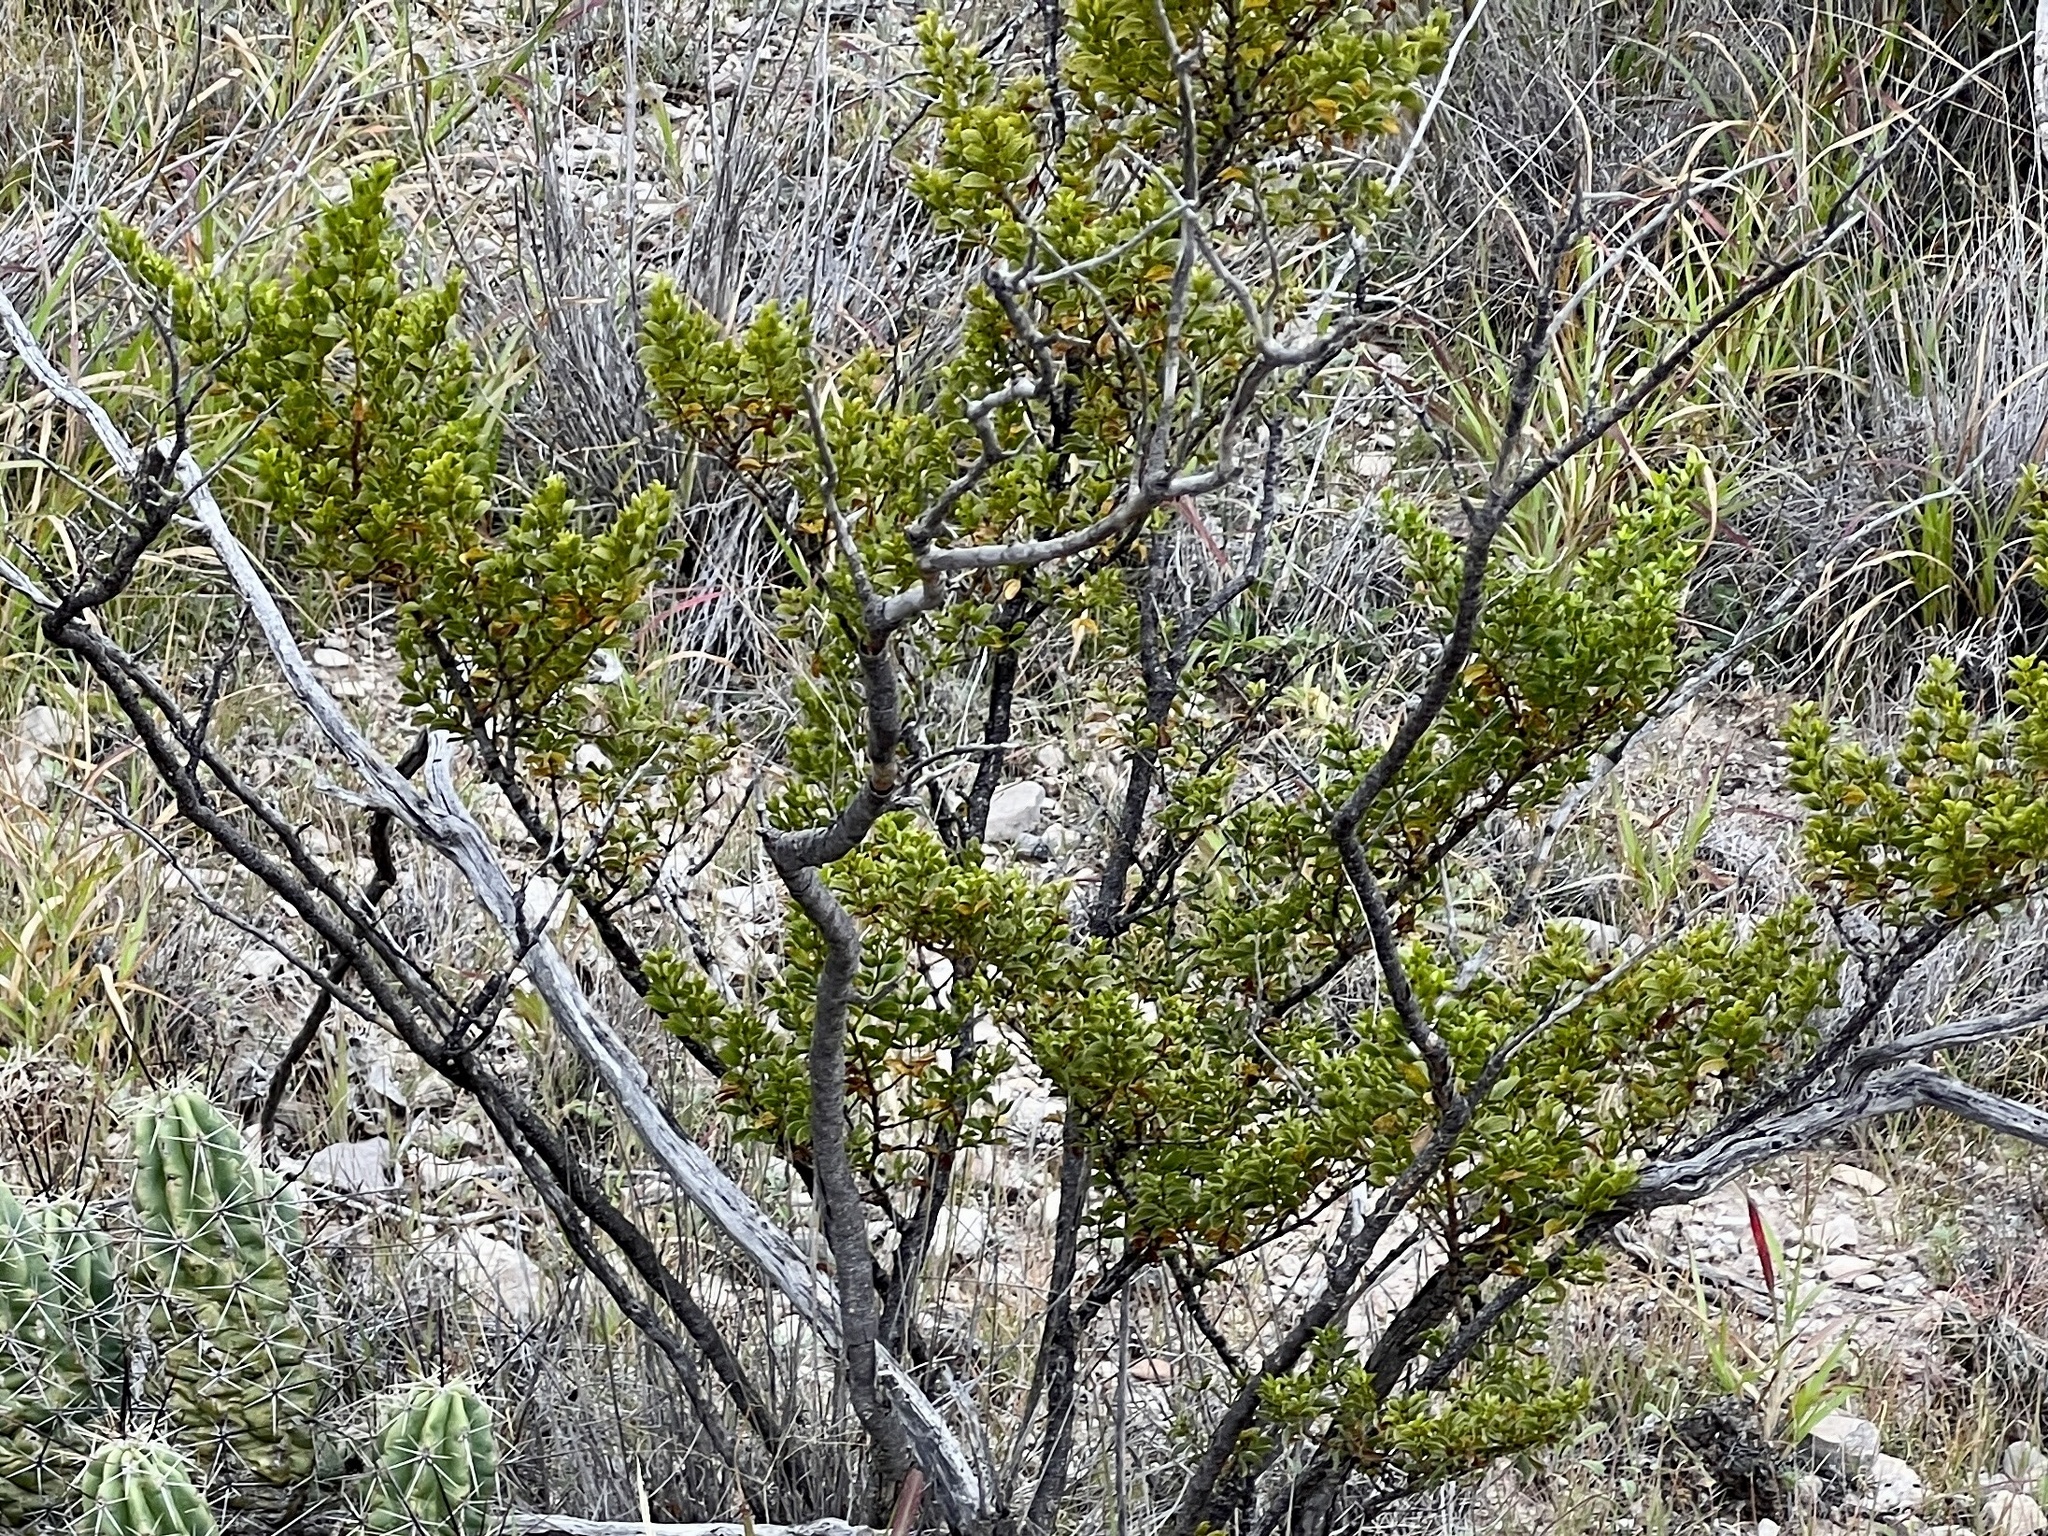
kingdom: Plantae
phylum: Tracheophyta
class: Magnoliopsida
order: Zygophyllales
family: Zygophyllaceae
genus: Larrea
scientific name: Larrea tridentata
